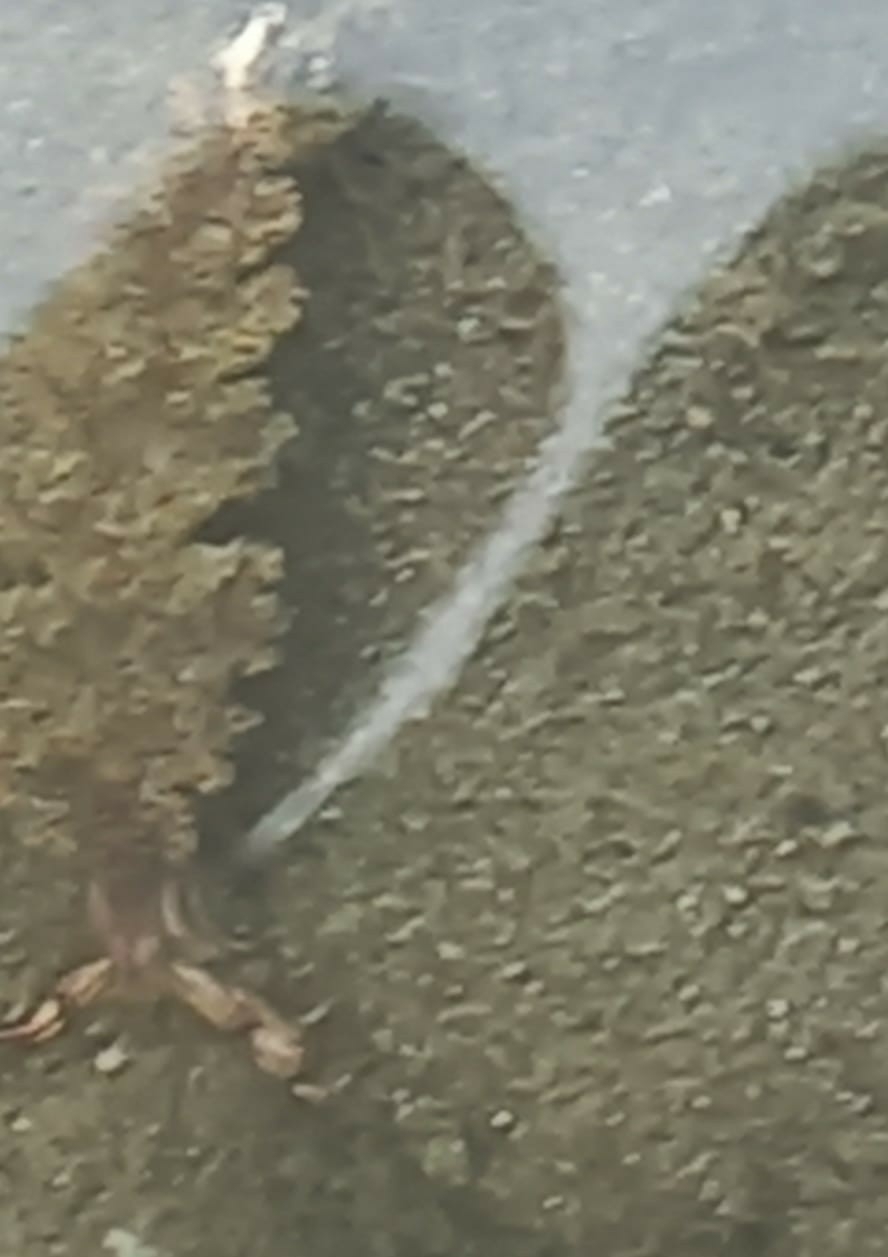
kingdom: Animalia
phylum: Mollusca
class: Gastropoda
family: Plakobranchidae
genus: Elysia
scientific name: Elysia diomedea
